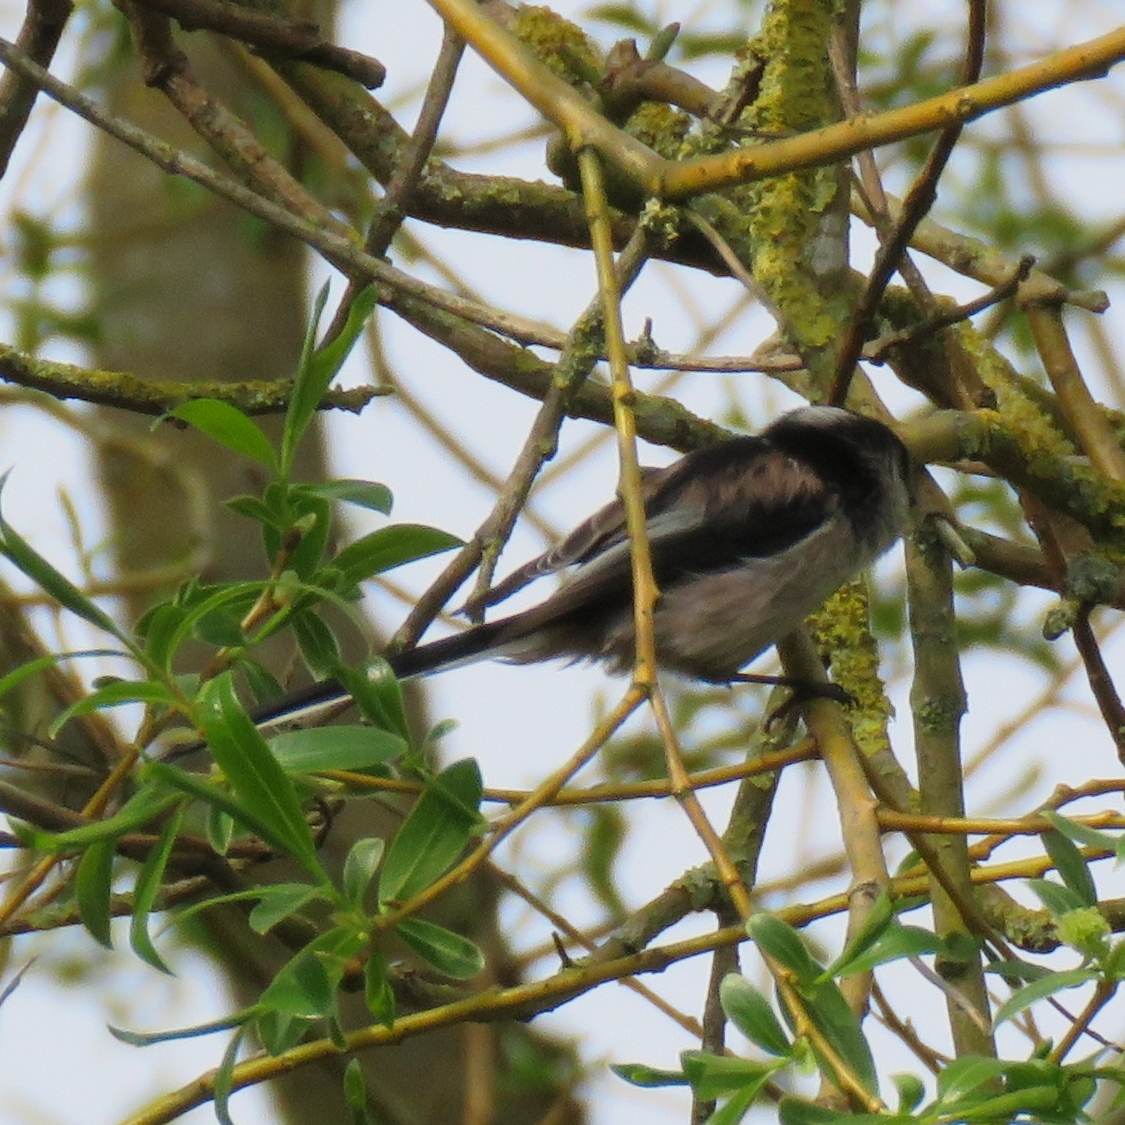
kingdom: Animalia
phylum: Chordata
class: Aves
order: Passeriformes
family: Aegithalidae
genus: Aegithalos
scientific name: Aegithalos caudatus
